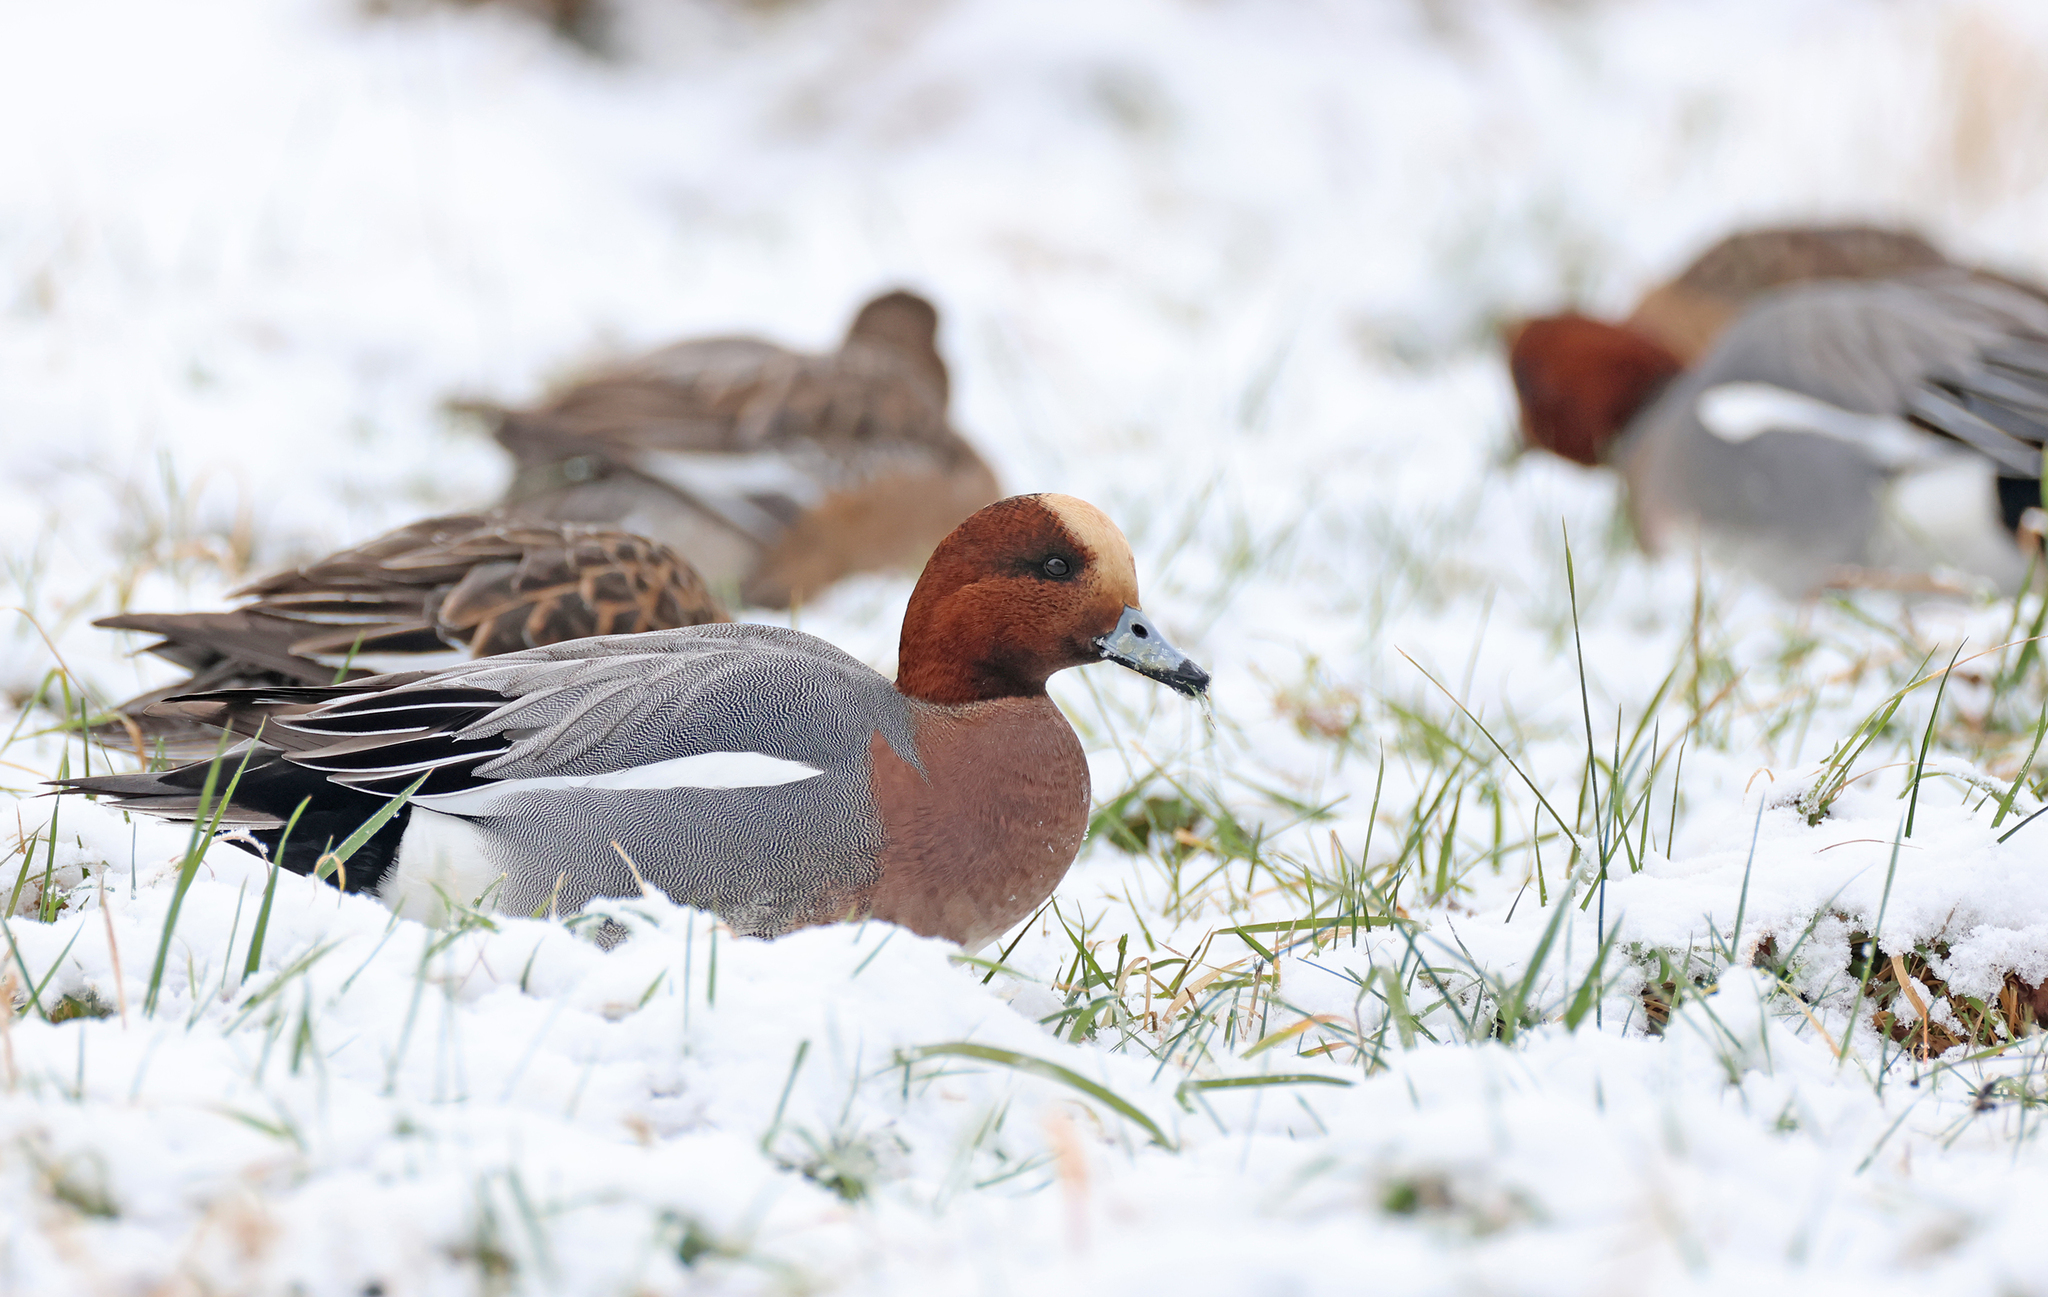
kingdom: Animalia
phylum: Chordata
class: Aves
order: Anseriformes
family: Anatidae
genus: Mareca
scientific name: Mareca penelope
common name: Eurasian wigeon
